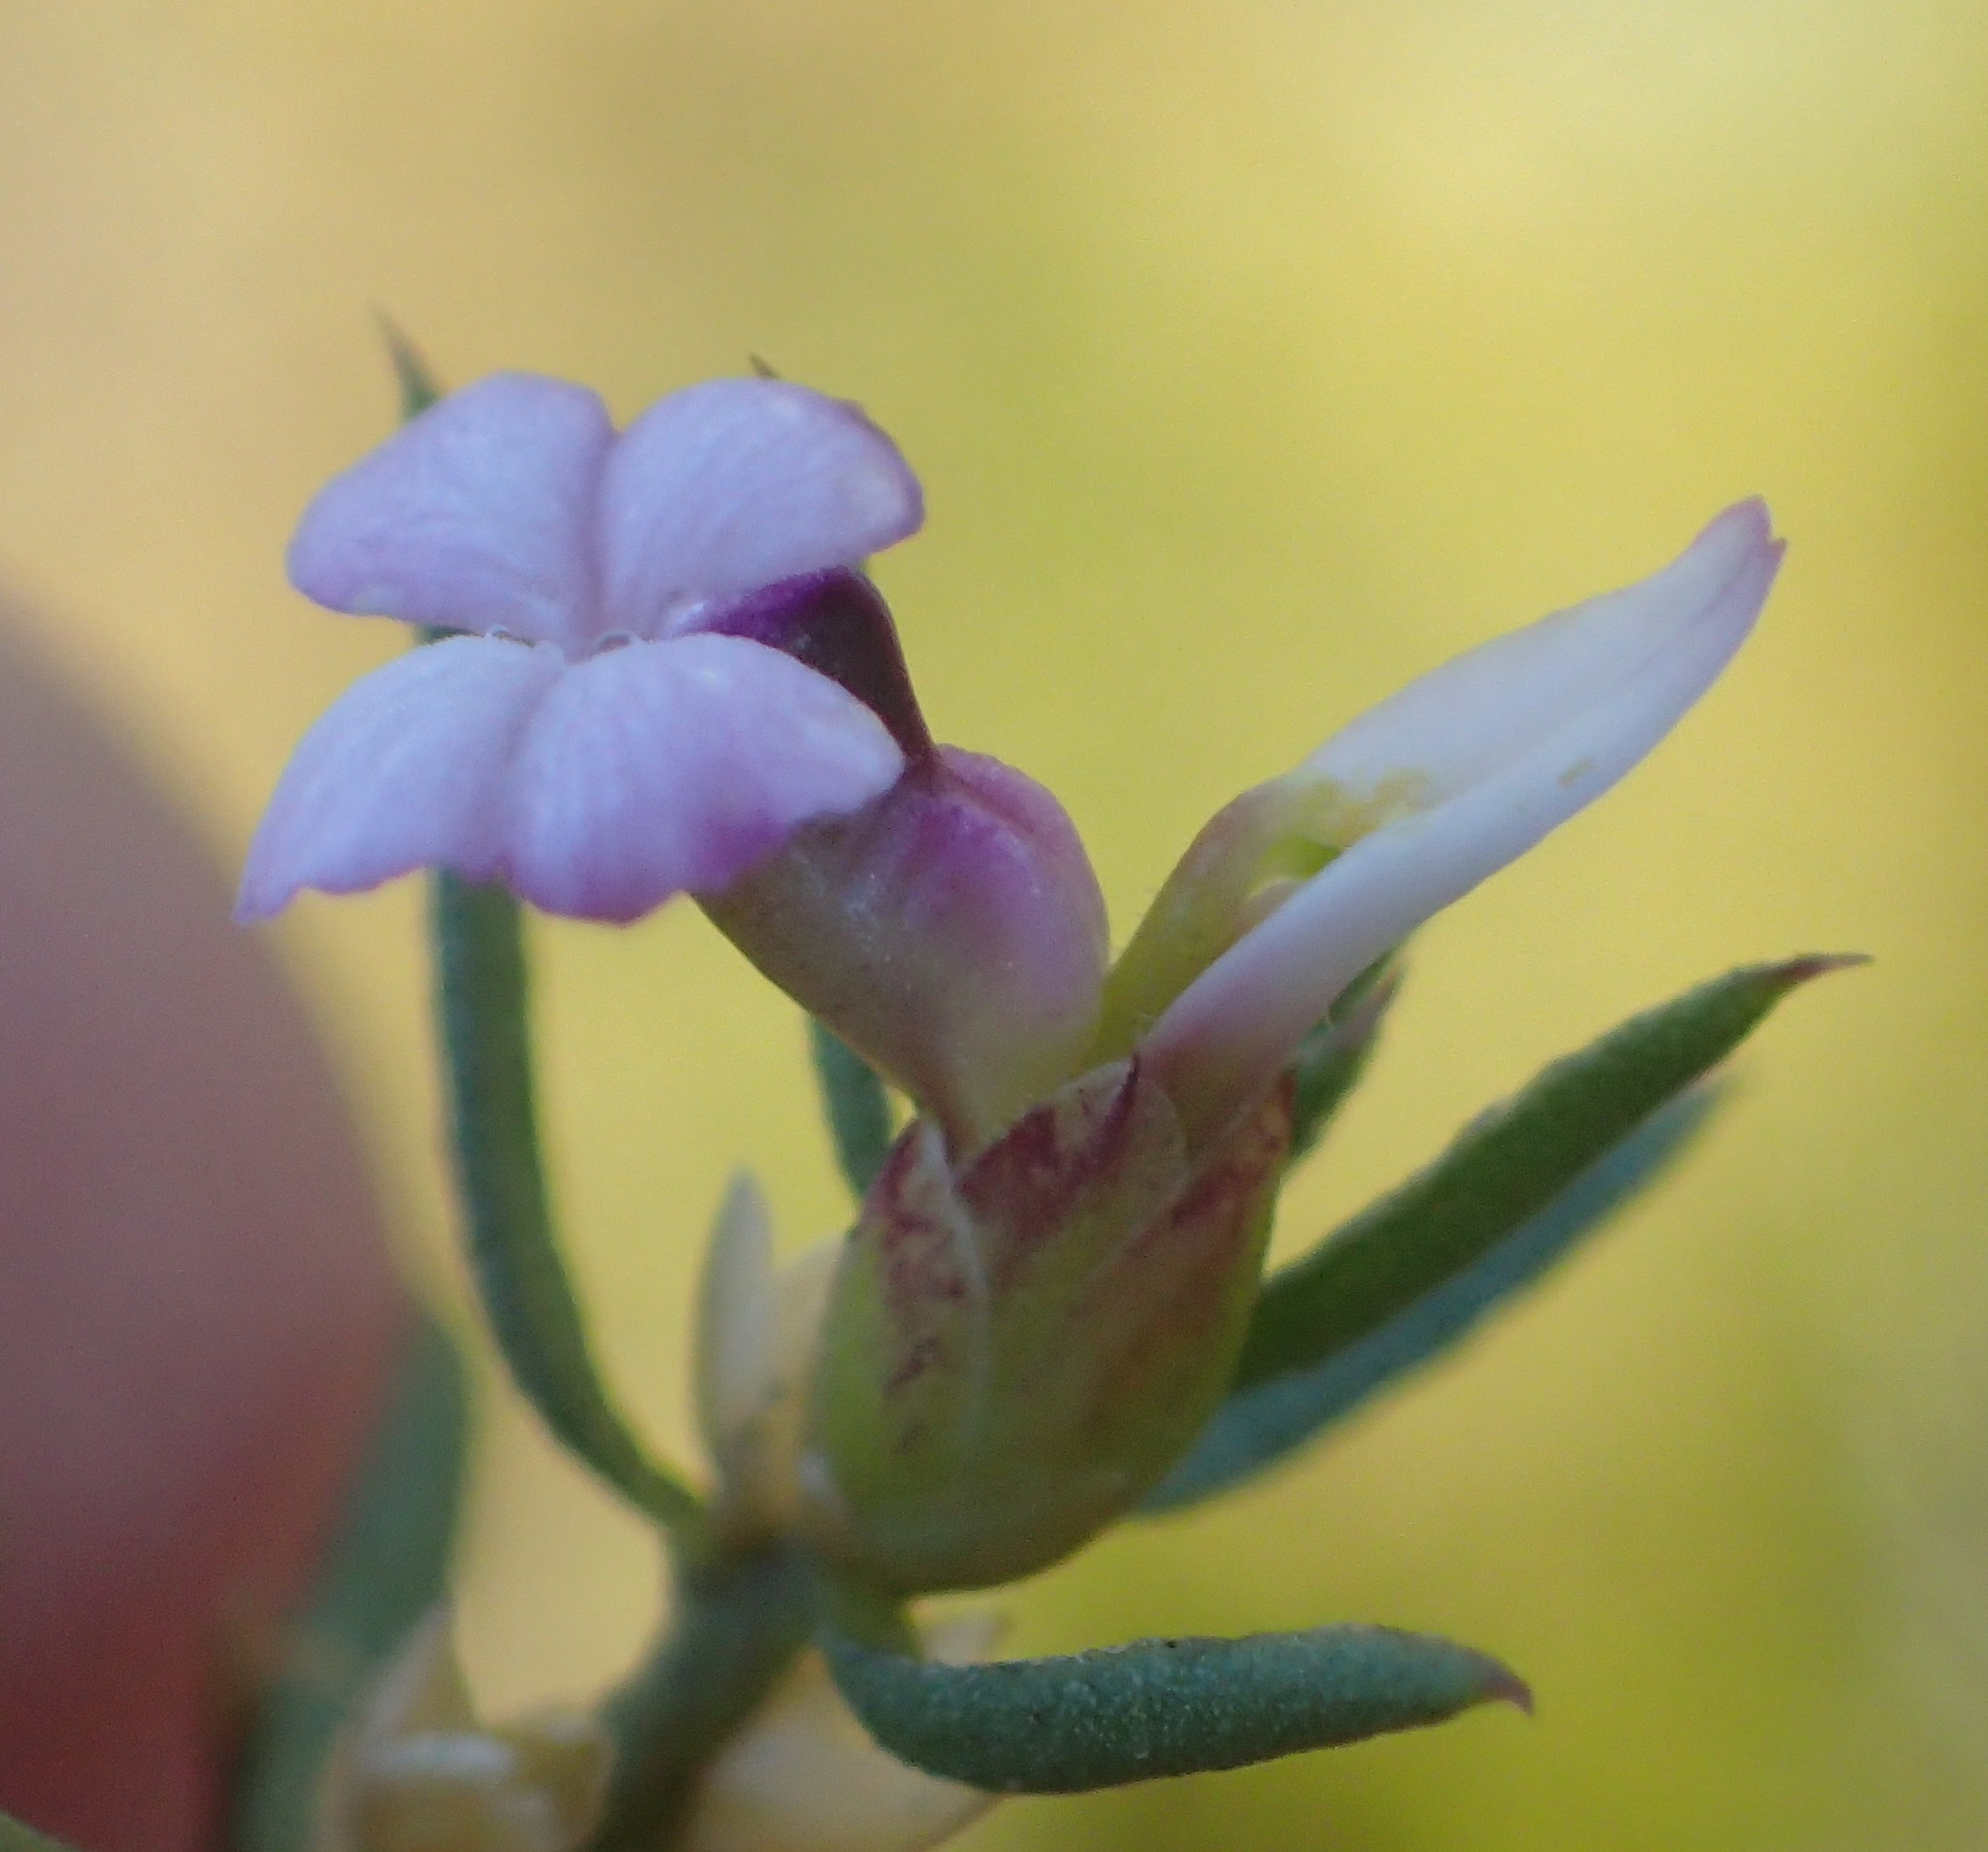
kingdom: Plantae
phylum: Tracheophyta
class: Magnoliopsida
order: Fabales
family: Polygalaceae
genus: Muraltia
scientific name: Muraltia knysnaensis
